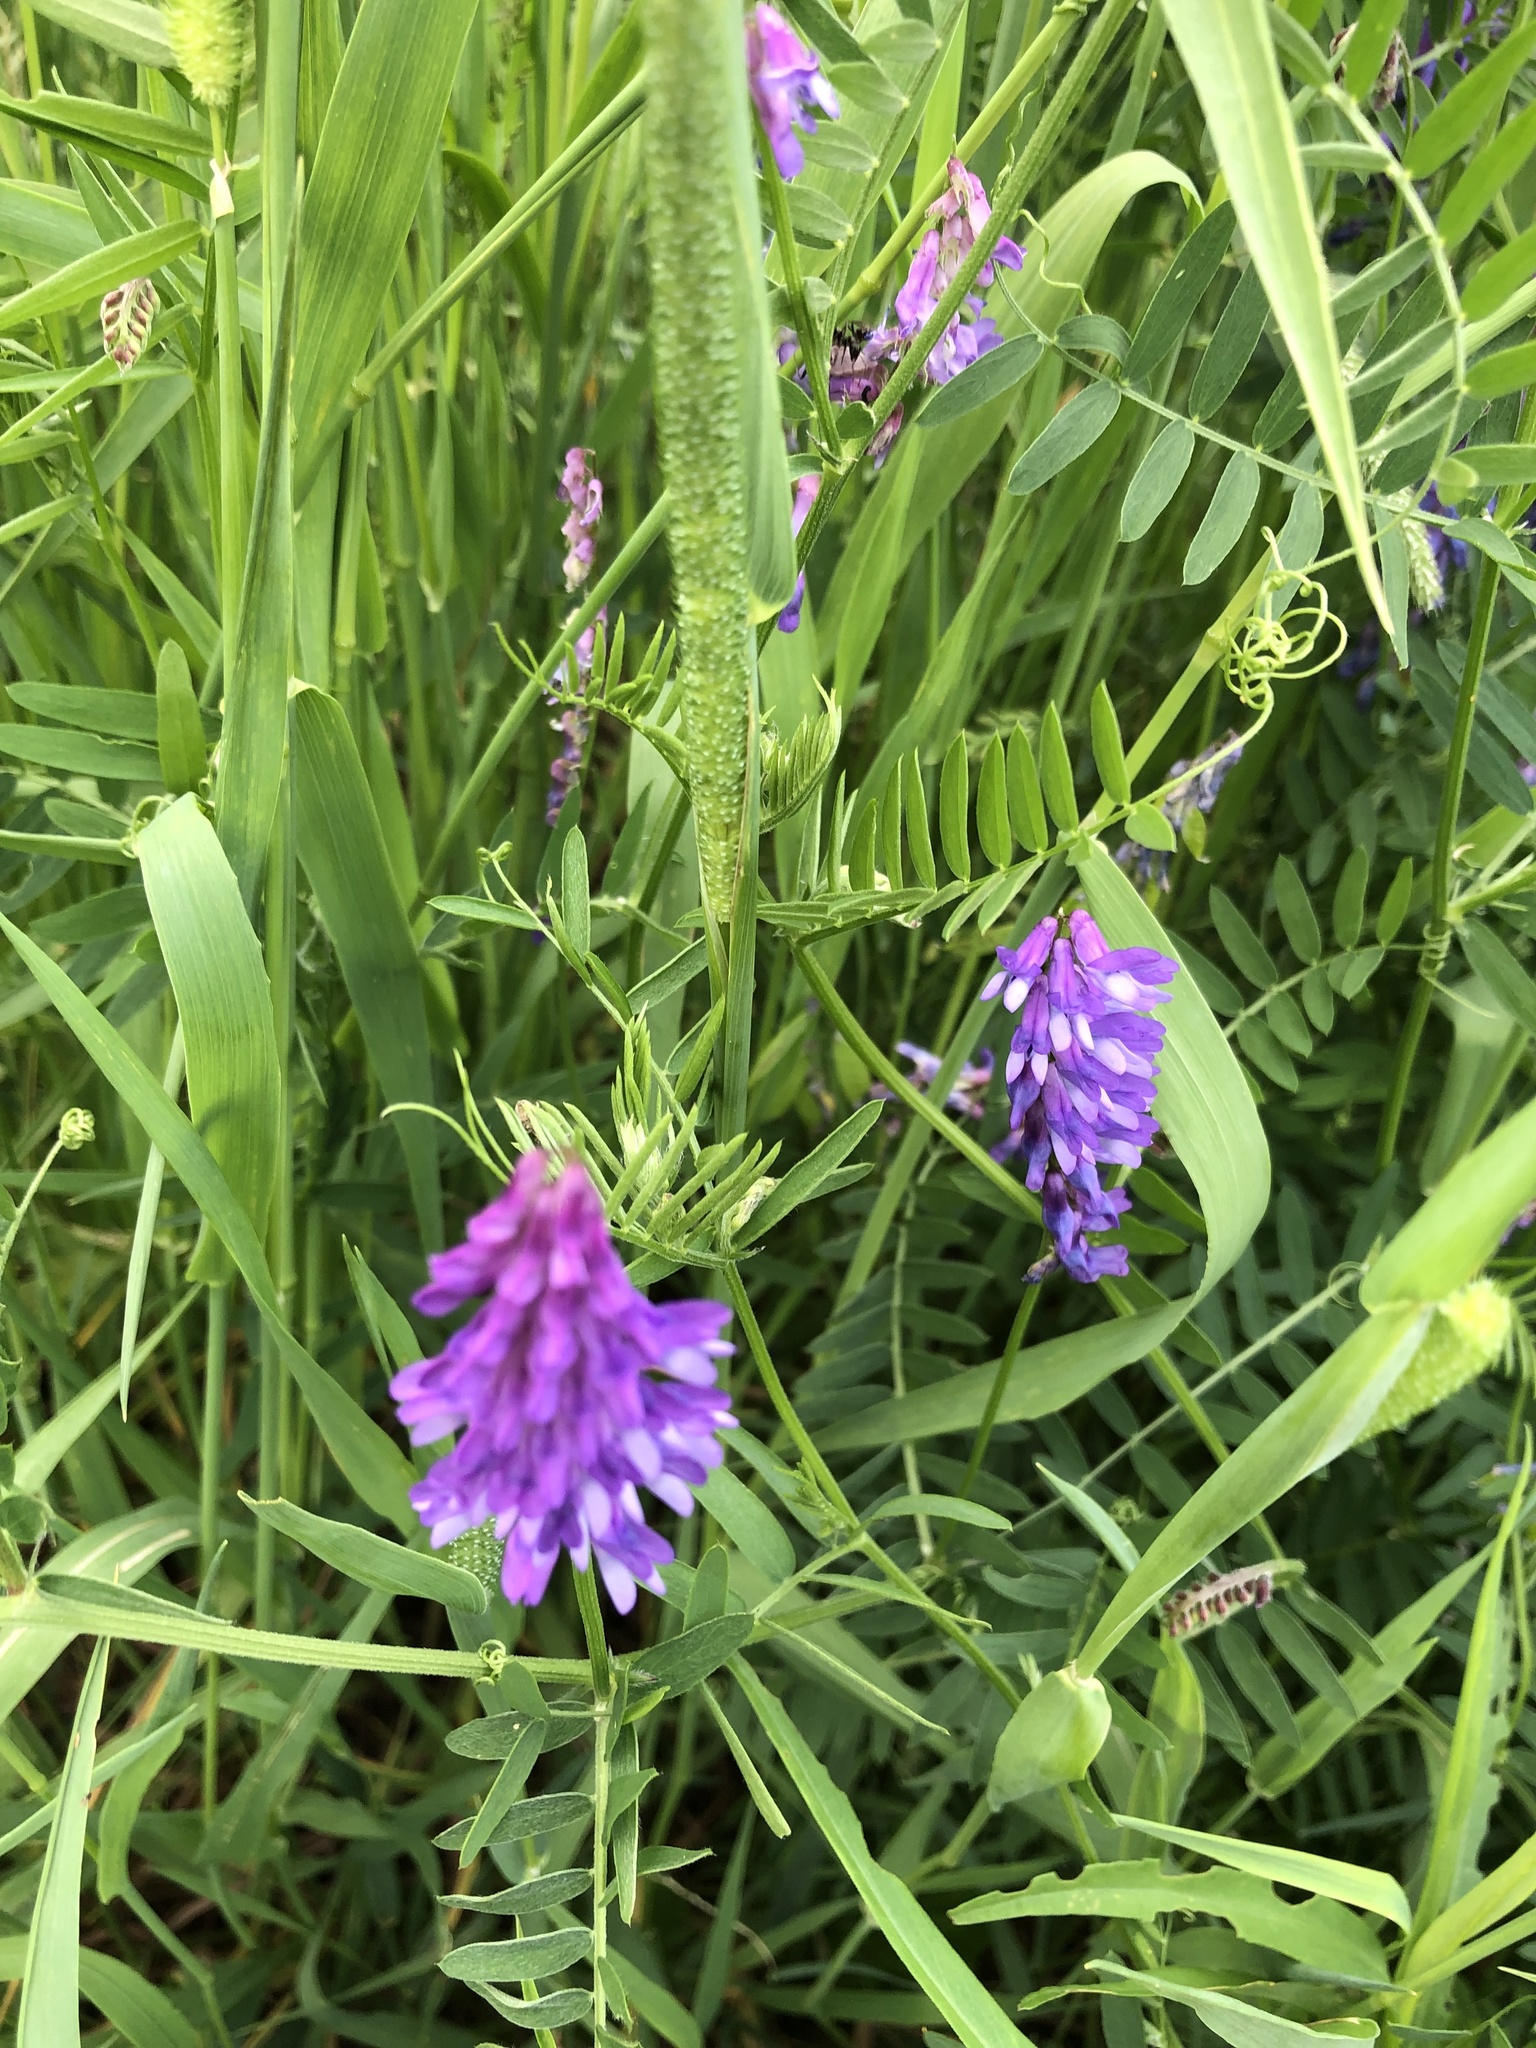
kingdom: Plantae
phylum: Tracheophyta
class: Magnoliopsida
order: Fabales
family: Fabaceae
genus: Vicia
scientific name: Vicia cracca
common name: Bird vetch
